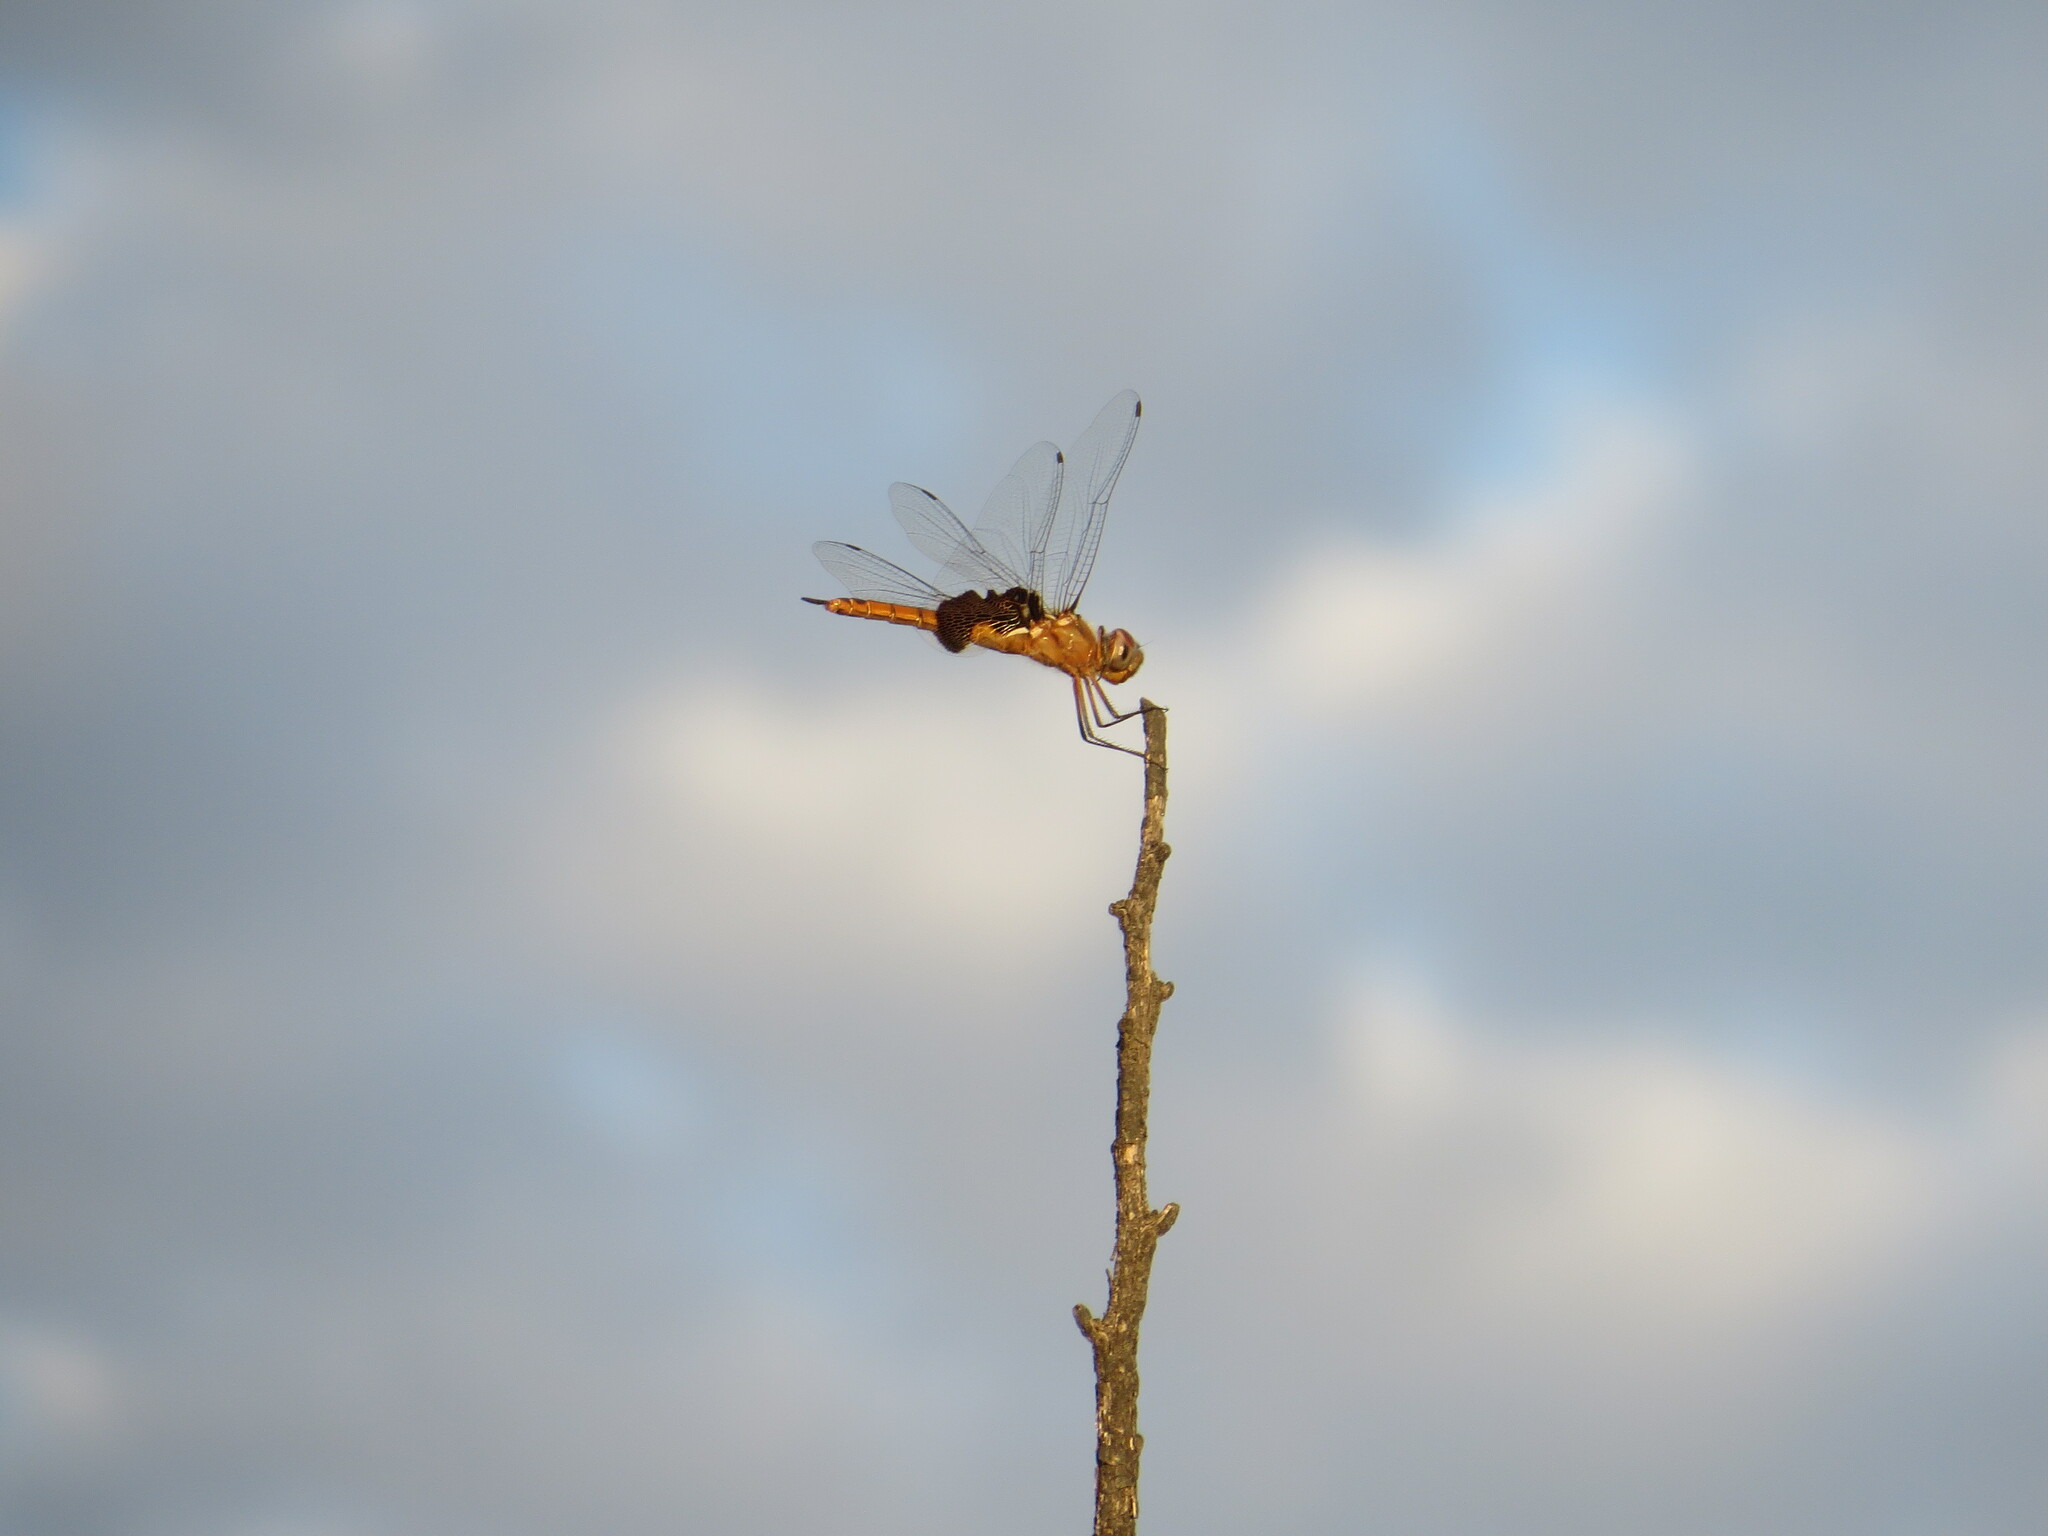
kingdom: Animalia
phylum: Arthropoda
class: Insecta
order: Odonata
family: Libellulidae
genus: Tramea
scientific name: Tramea onusta
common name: Red saddlebags
